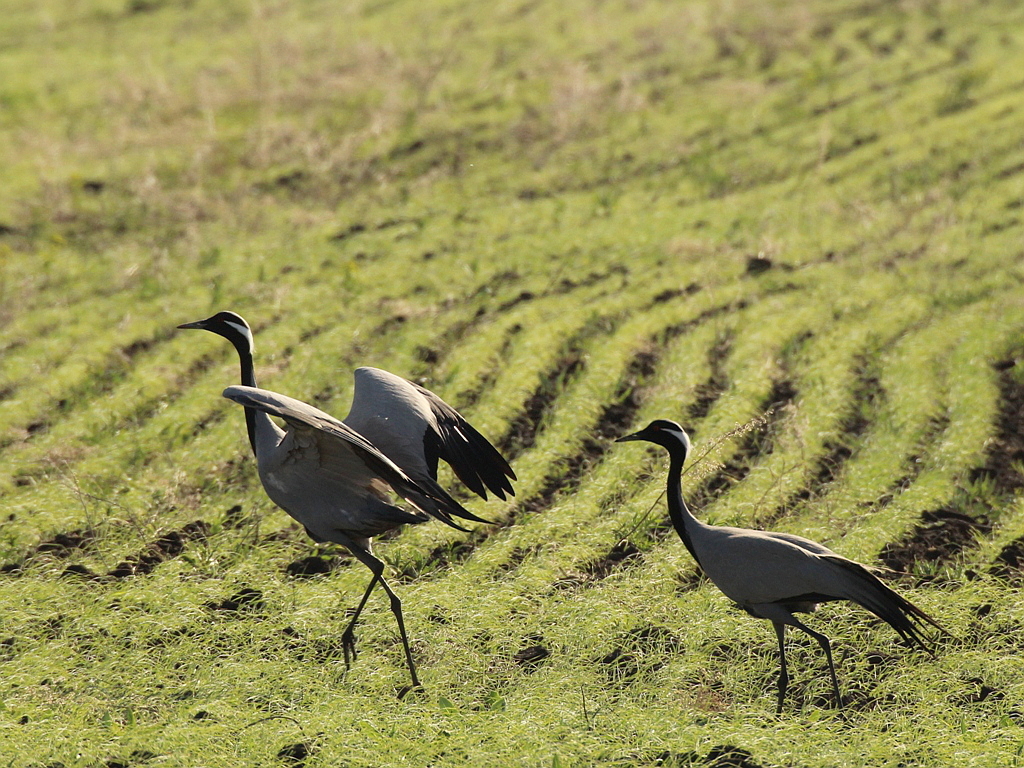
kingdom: Animalia
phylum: Chordata
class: Aves
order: Gruiformes
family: Gruidae
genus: Anthropoides
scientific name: Anthropoides virgo
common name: Demoiselle crane
